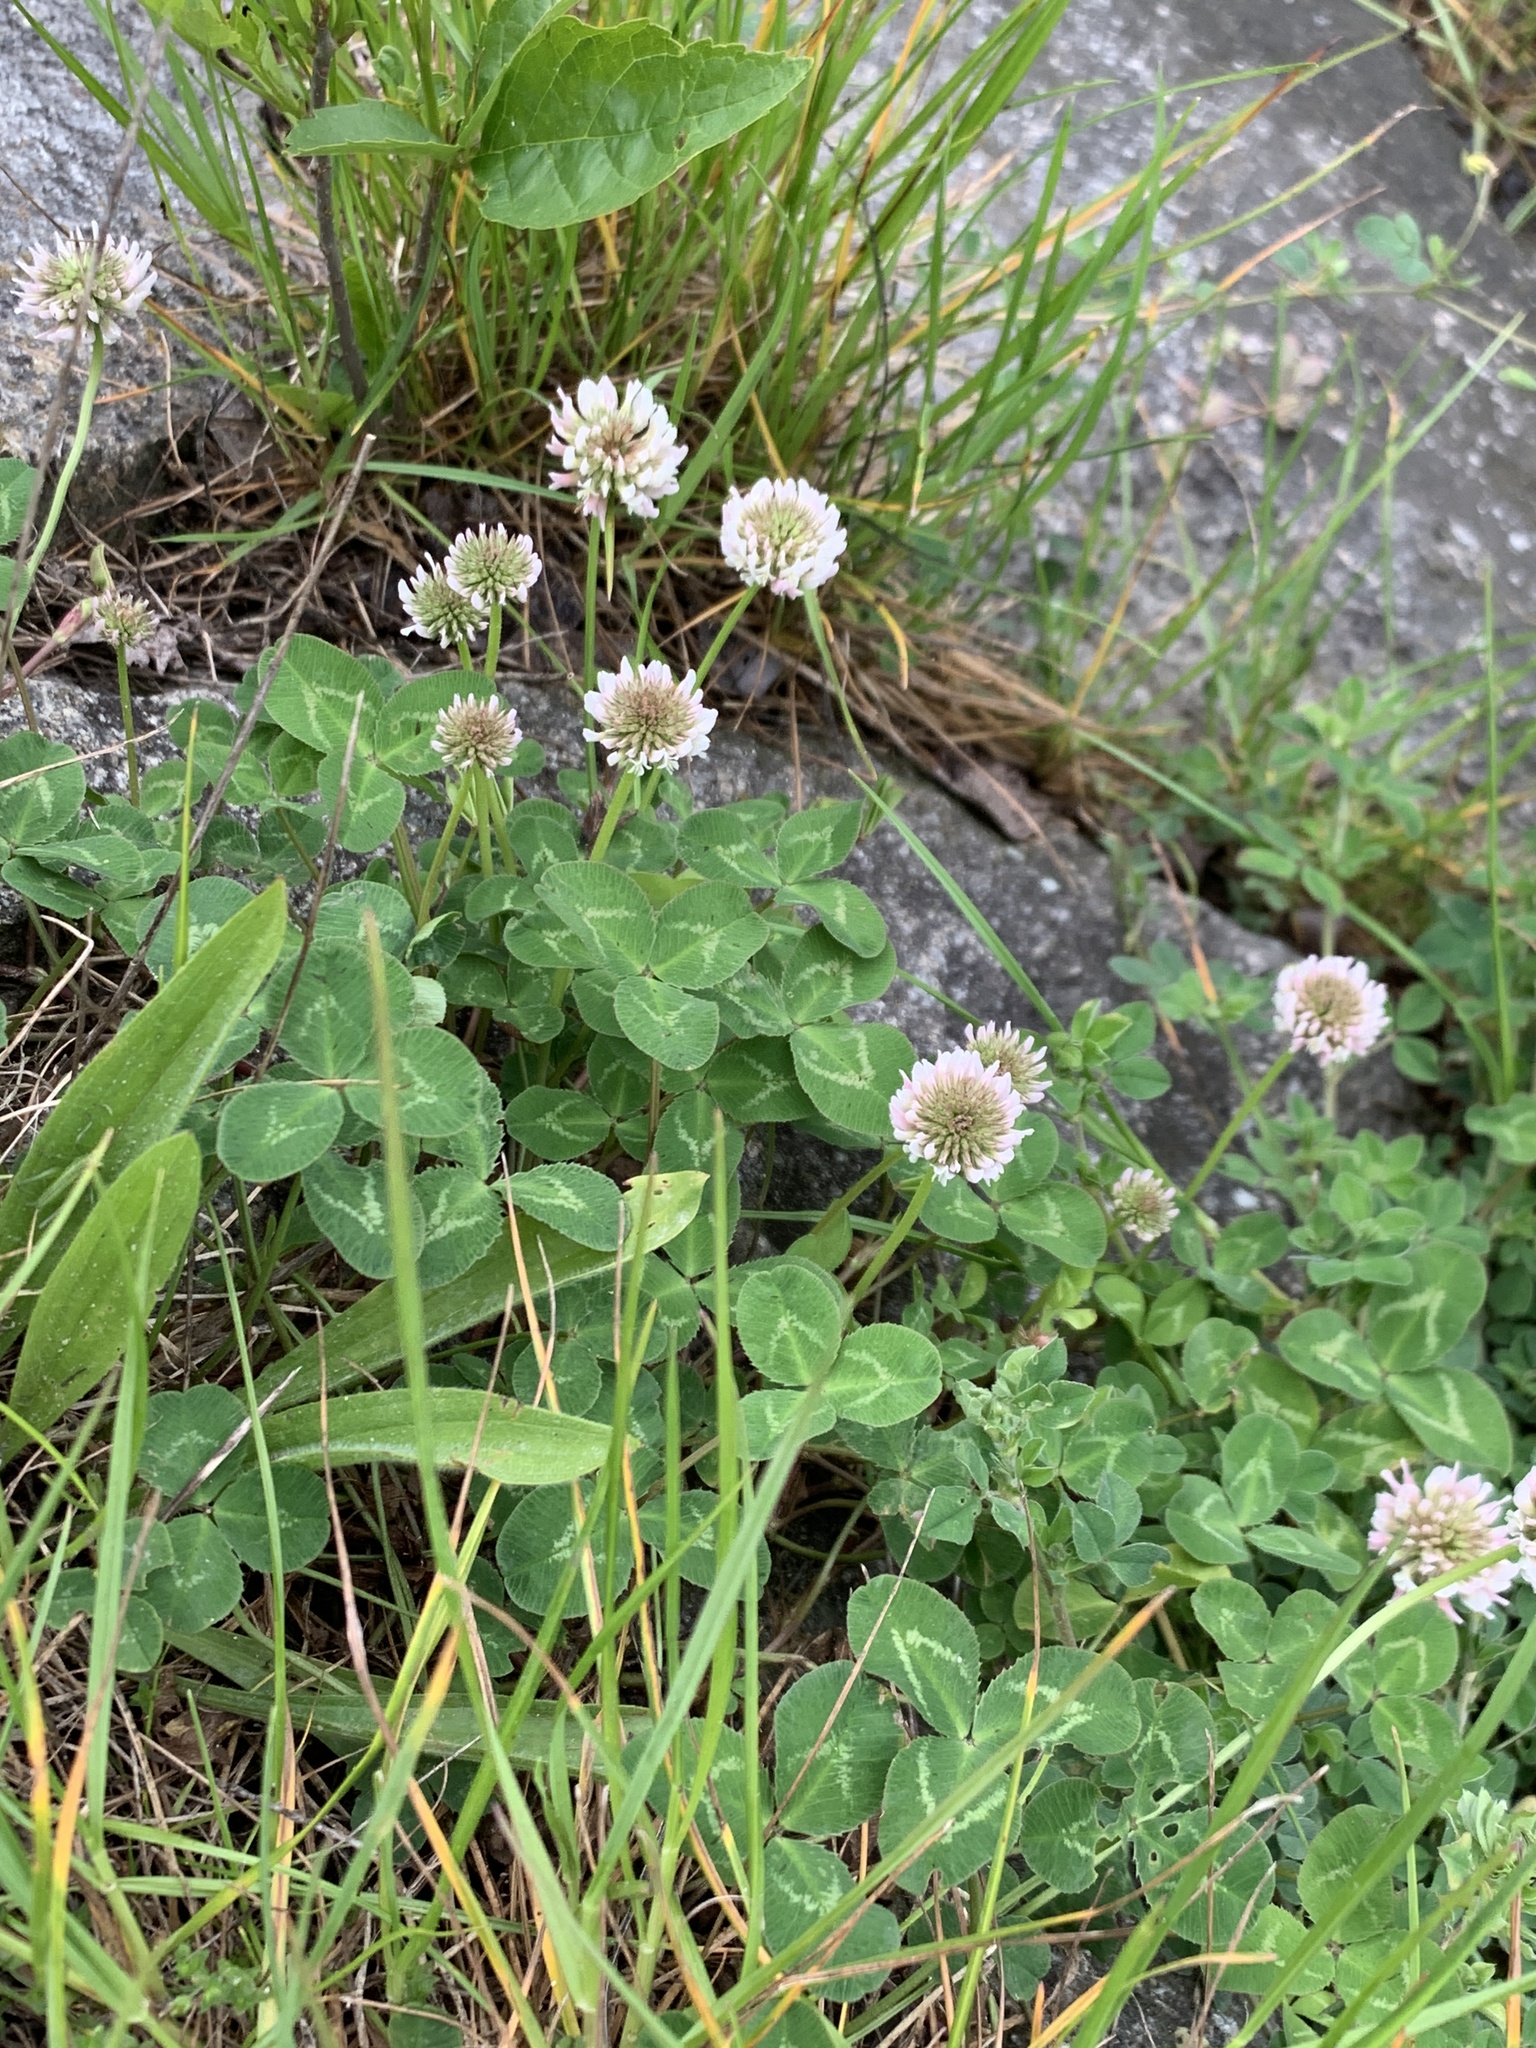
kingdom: Plantae
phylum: Tracheophyta
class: Magnoliopsida
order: Fabales
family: Fabaceae
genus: Trifolium
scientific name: Trifolium repens
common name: White clover
